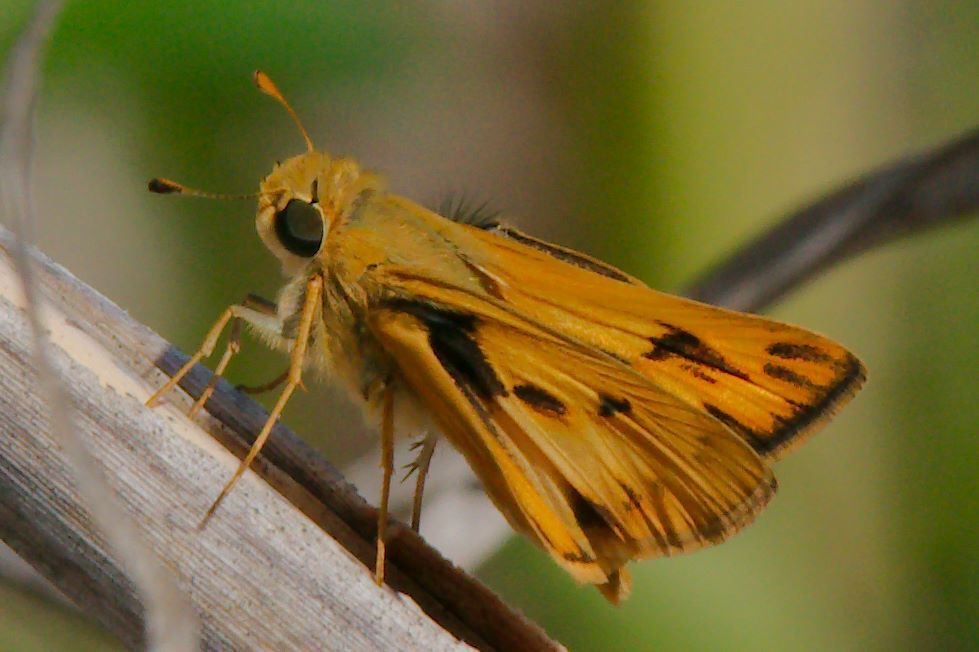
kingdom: Animalia
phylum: Arthropoda
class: Insecta
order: Lepidoptera
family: Hesperiidae
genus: Hylephila
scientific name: Hylephila phyleus
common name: Fiery skipper
